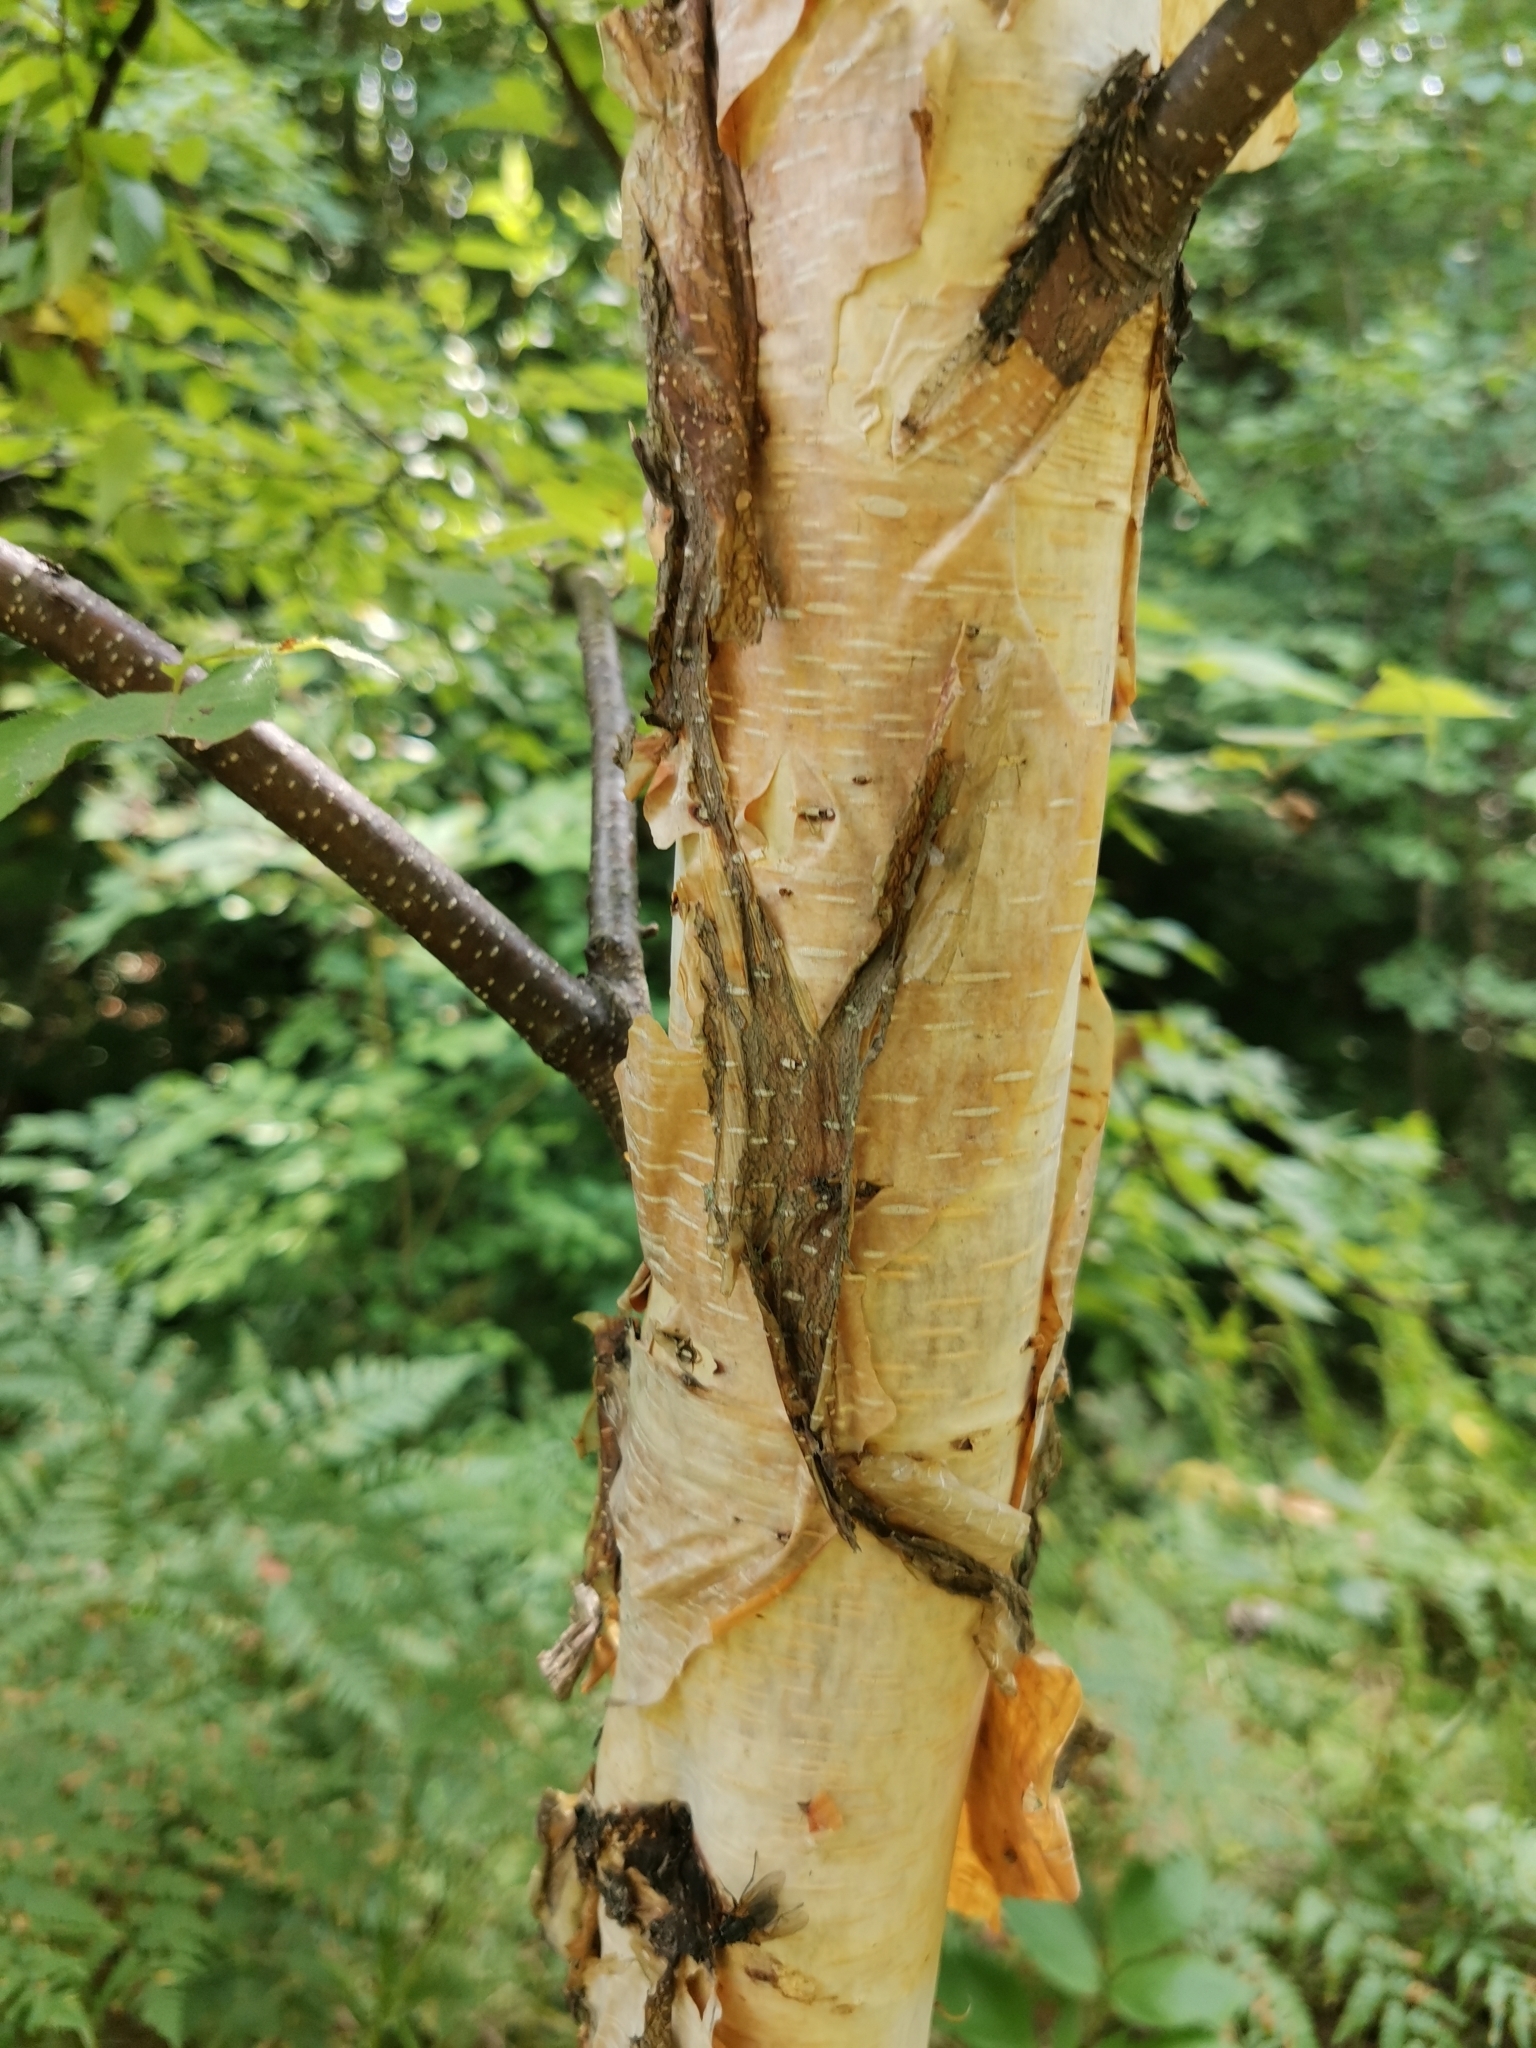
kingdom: Plantae
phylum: Tracheophyta
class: Magnoliopsida
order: Fagales
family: Betulaceae
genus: Betula
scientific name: Betula costata
